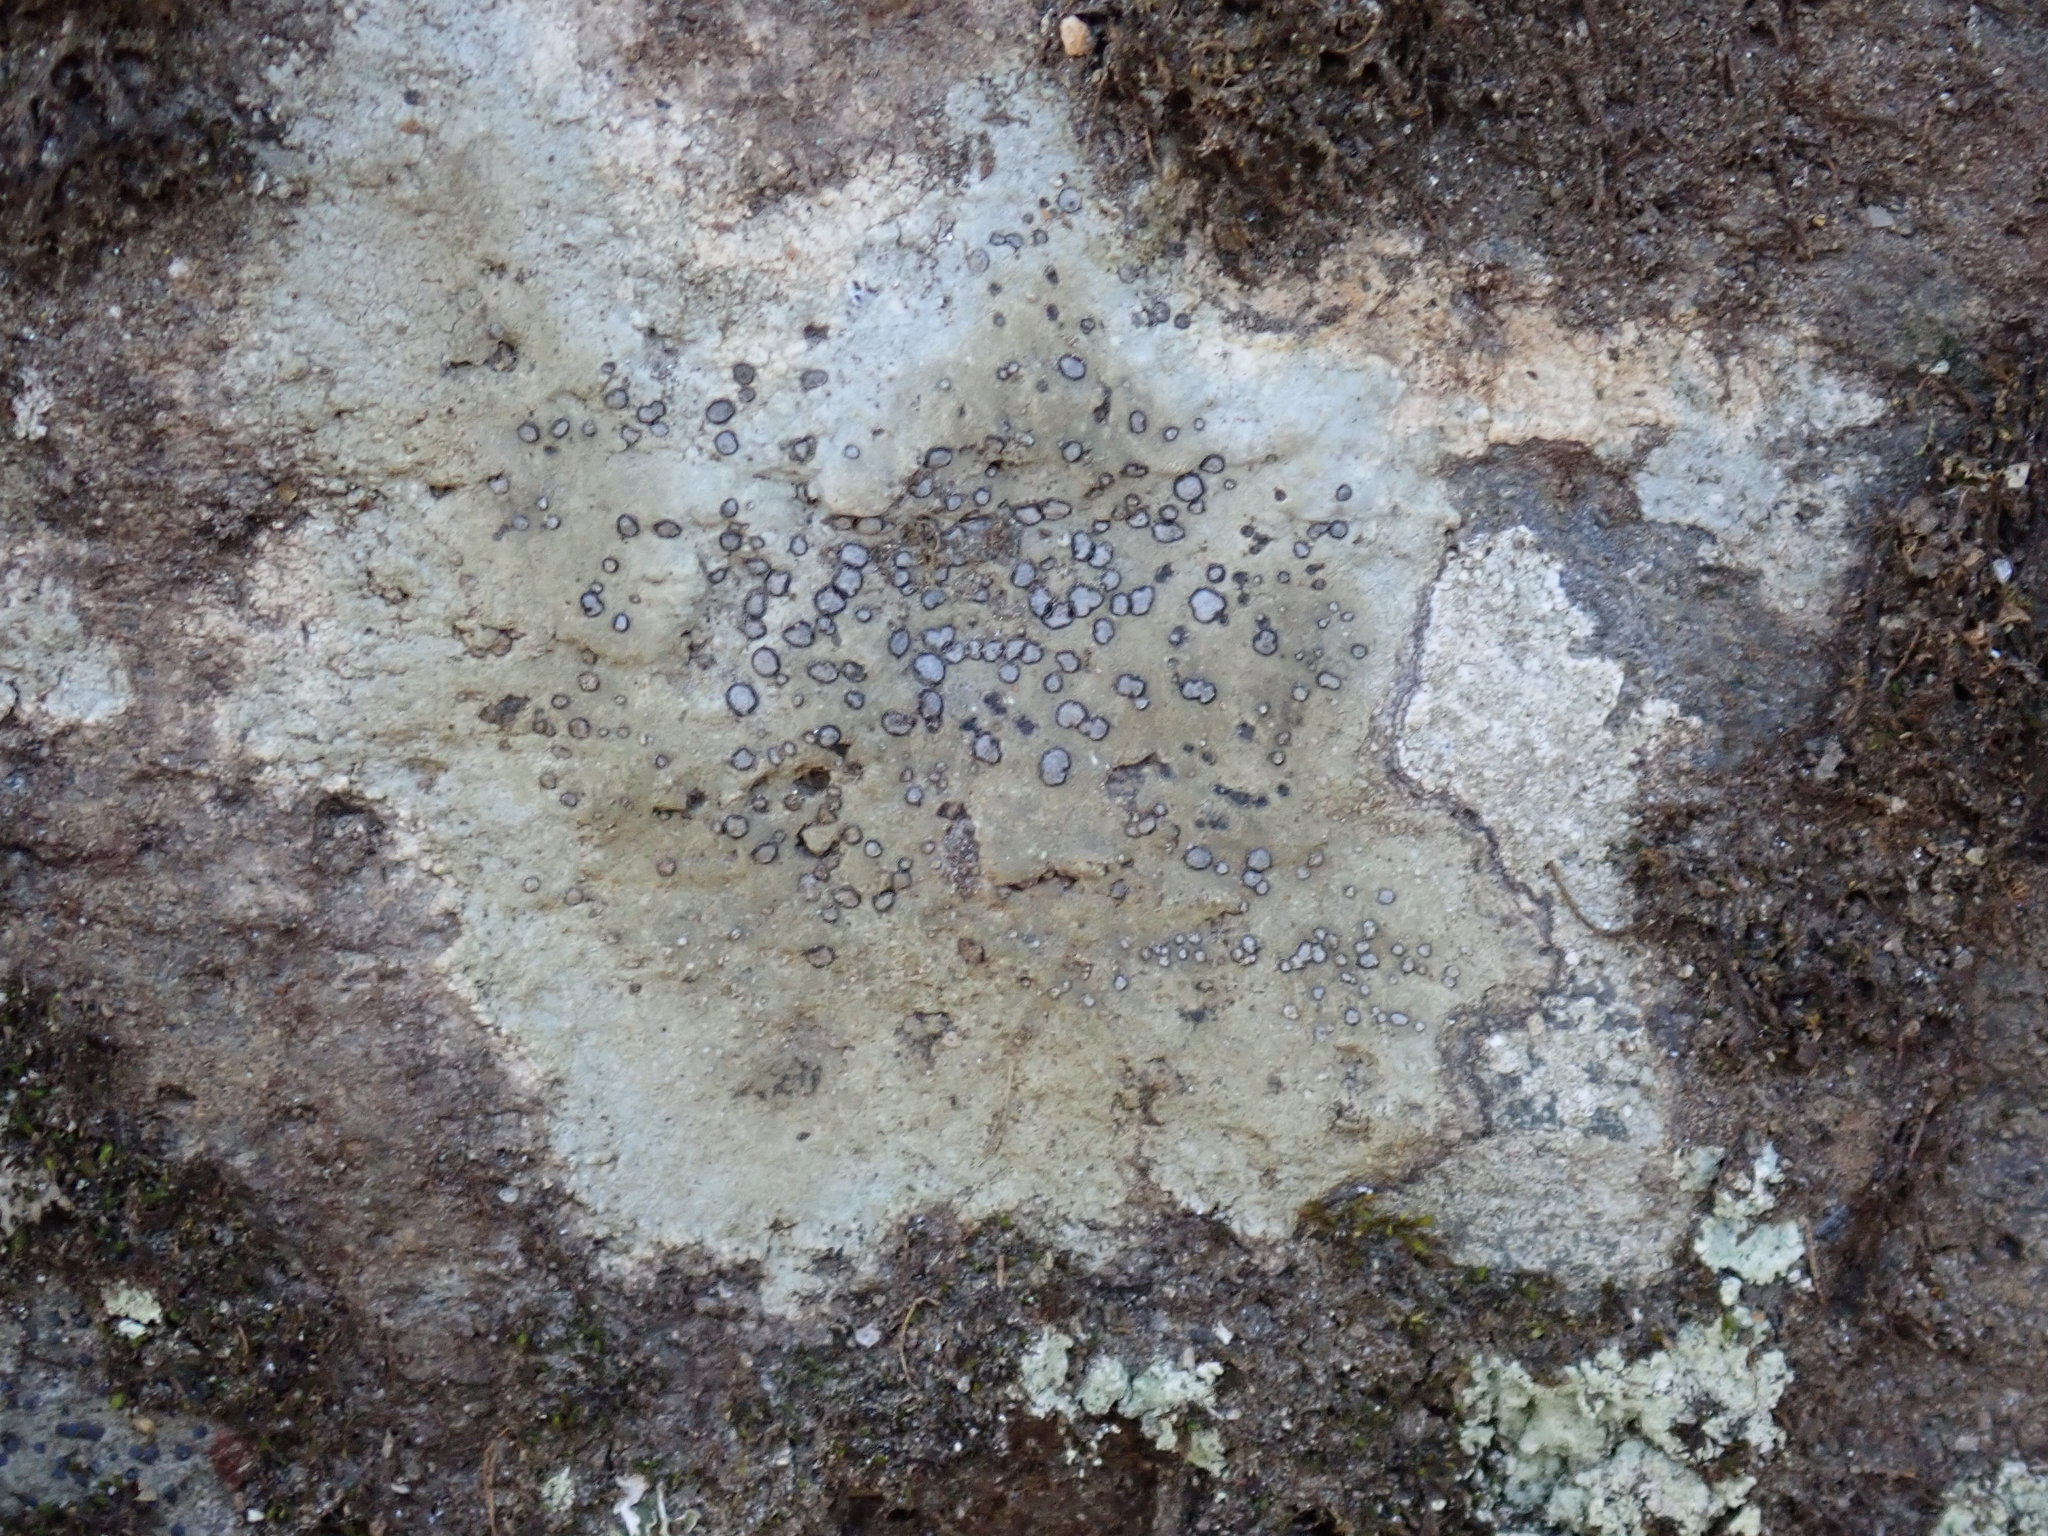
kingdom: Fungi
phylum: Ascomycota
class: Lecanoromycetes
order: Lecideales
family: Lecideaceae
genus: Porpidia
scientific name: Porpidia albocaerulescens
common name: Smokey-eyed boulder lichen
